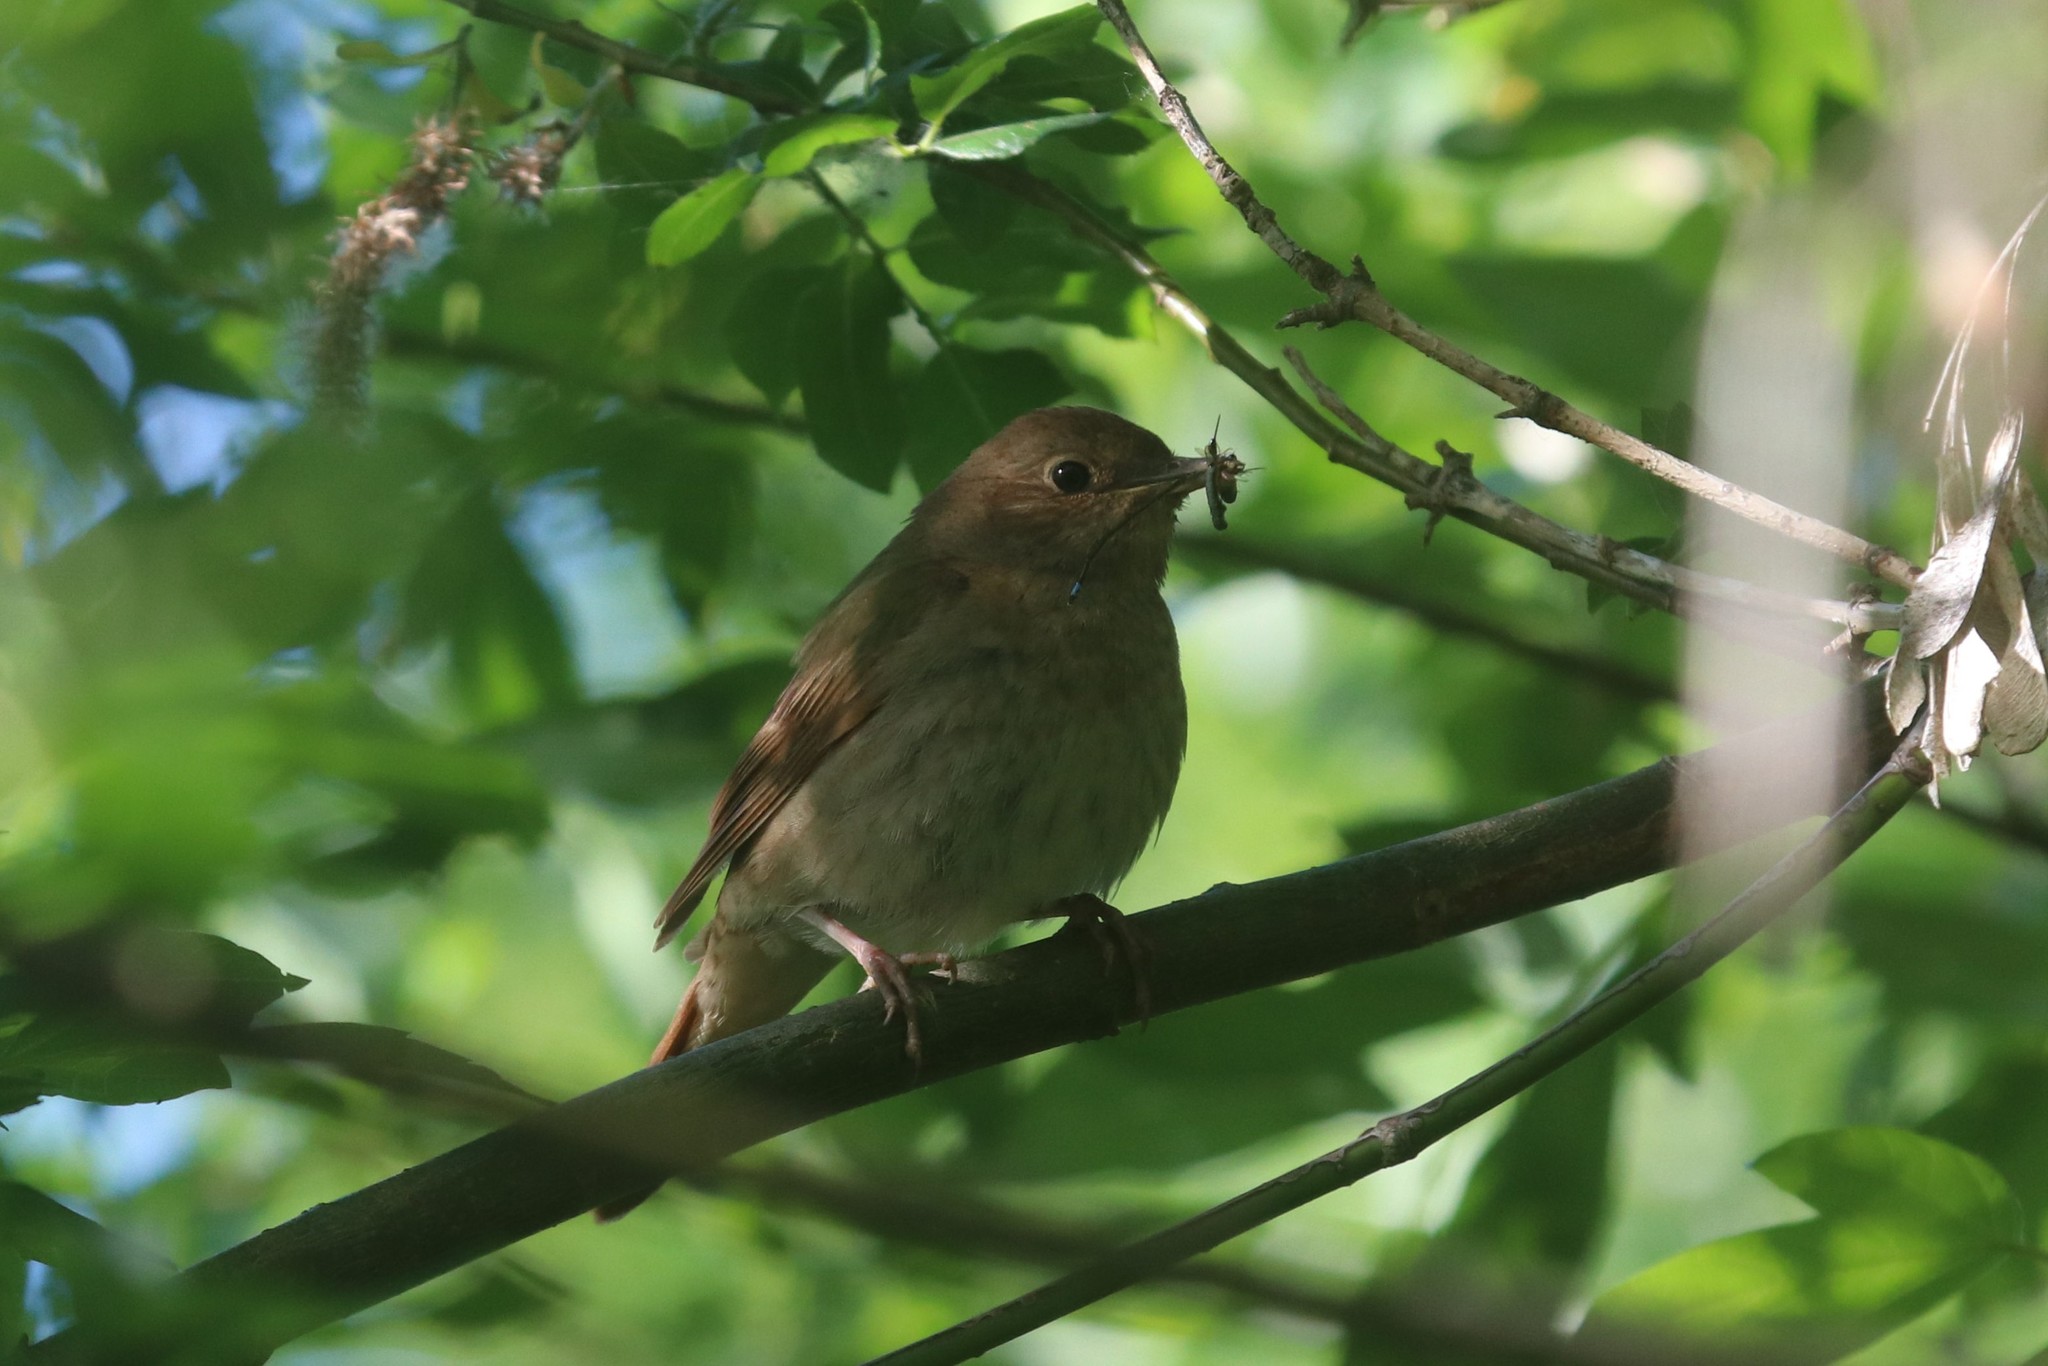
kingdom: Animalia
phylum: Chordata
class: Aves
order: Passeriformes
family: Muscicapidae
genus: Luscinia
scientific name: Luscinia luscinia
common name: Thrush nightingale
